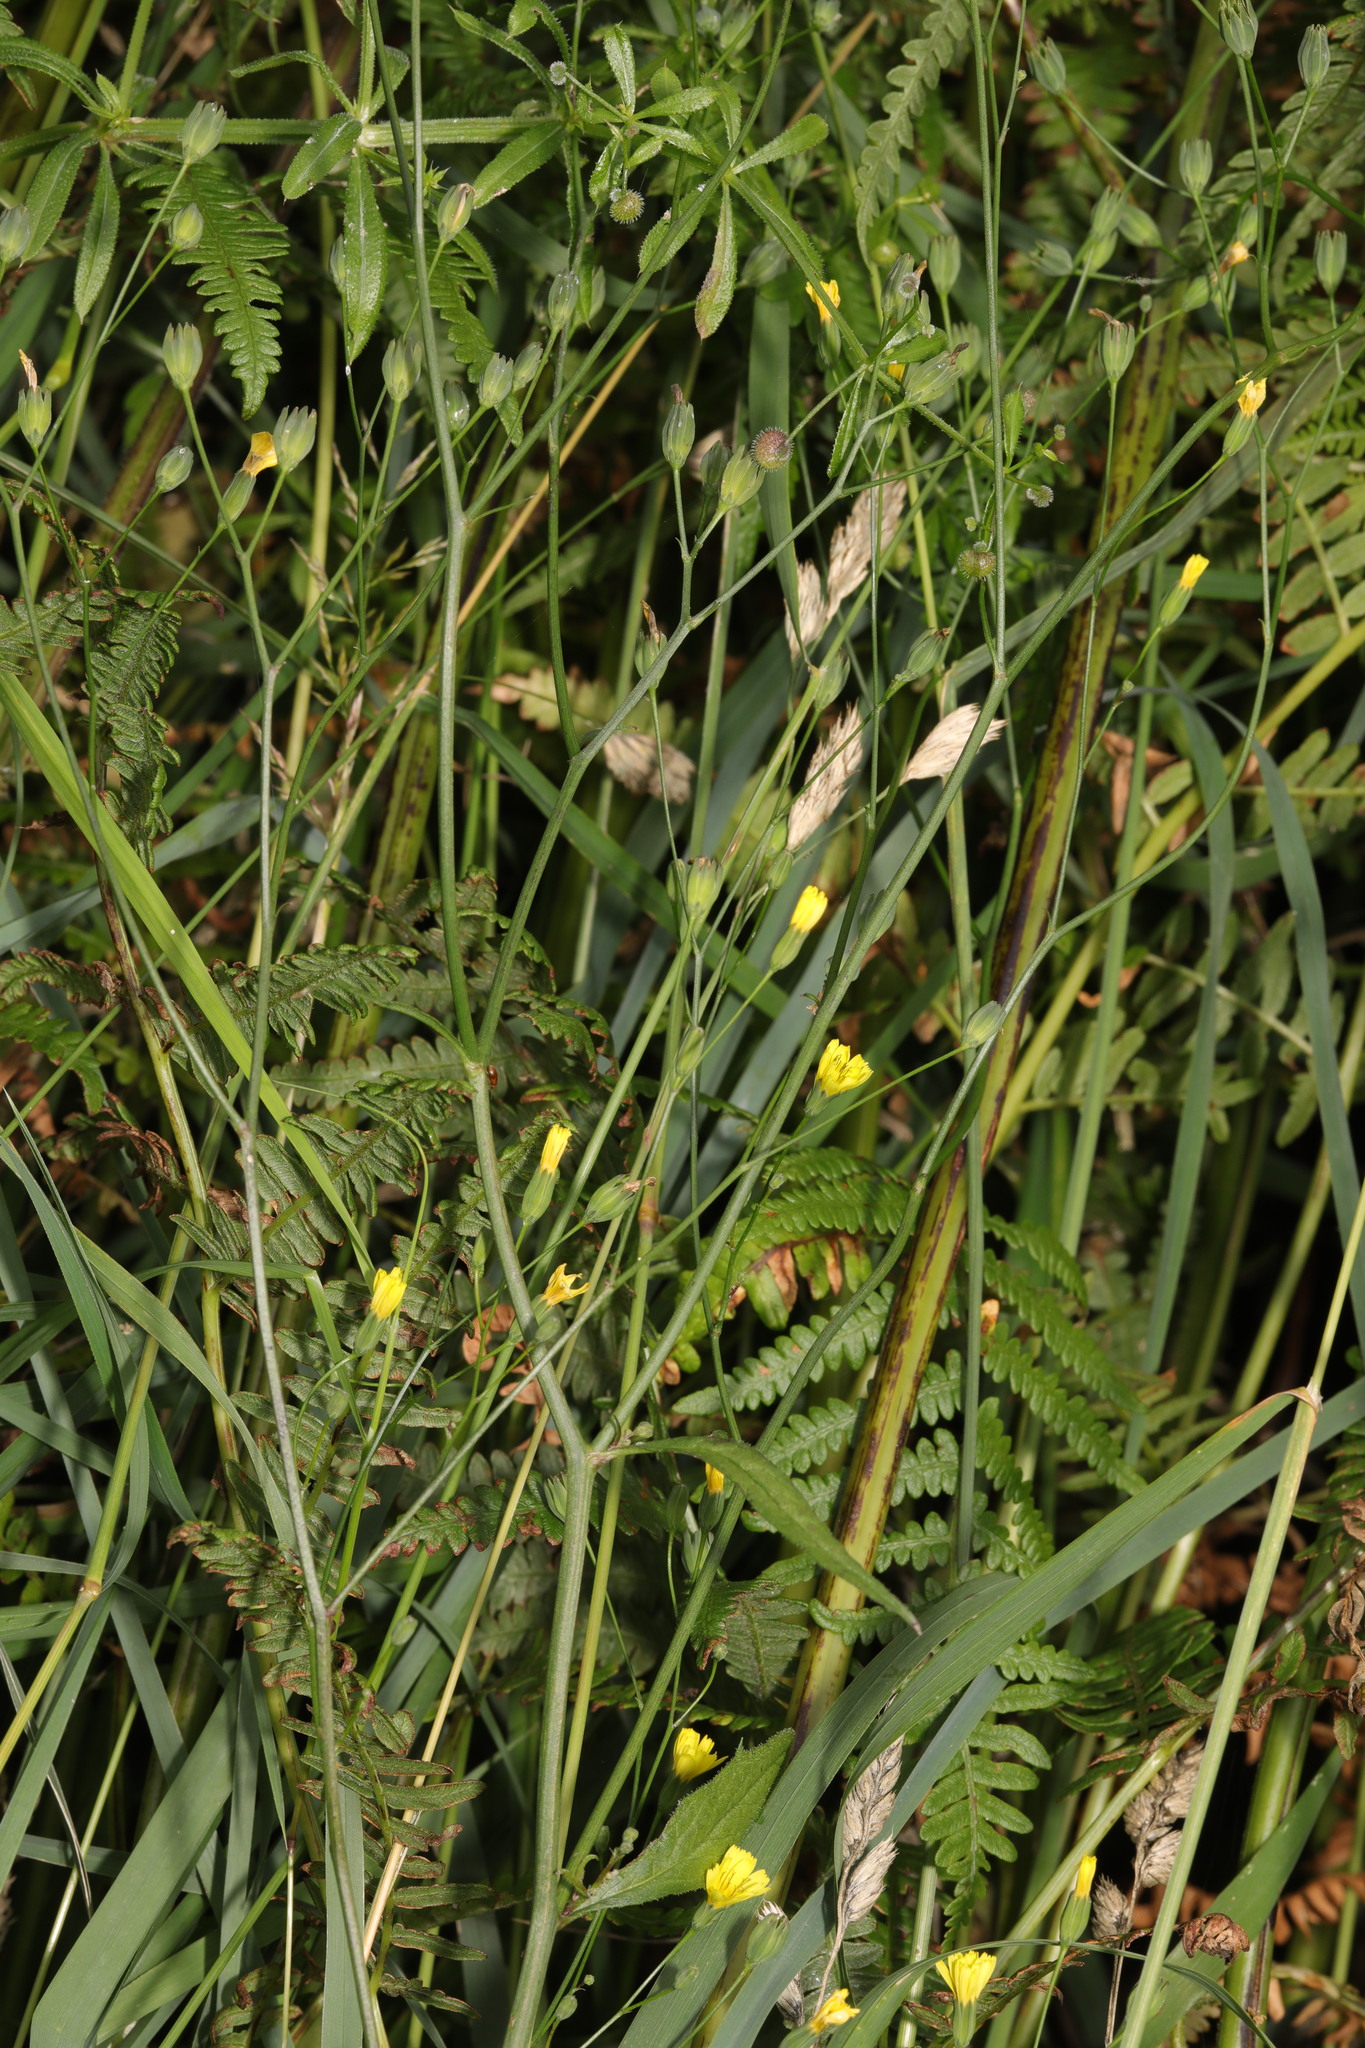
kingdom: Plantae
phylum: Tracheophyta
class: Magnoliopsida
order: Asterales
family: Asteraceae
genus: Lapsana
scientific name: Lapsana communis
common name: Nipplewort
